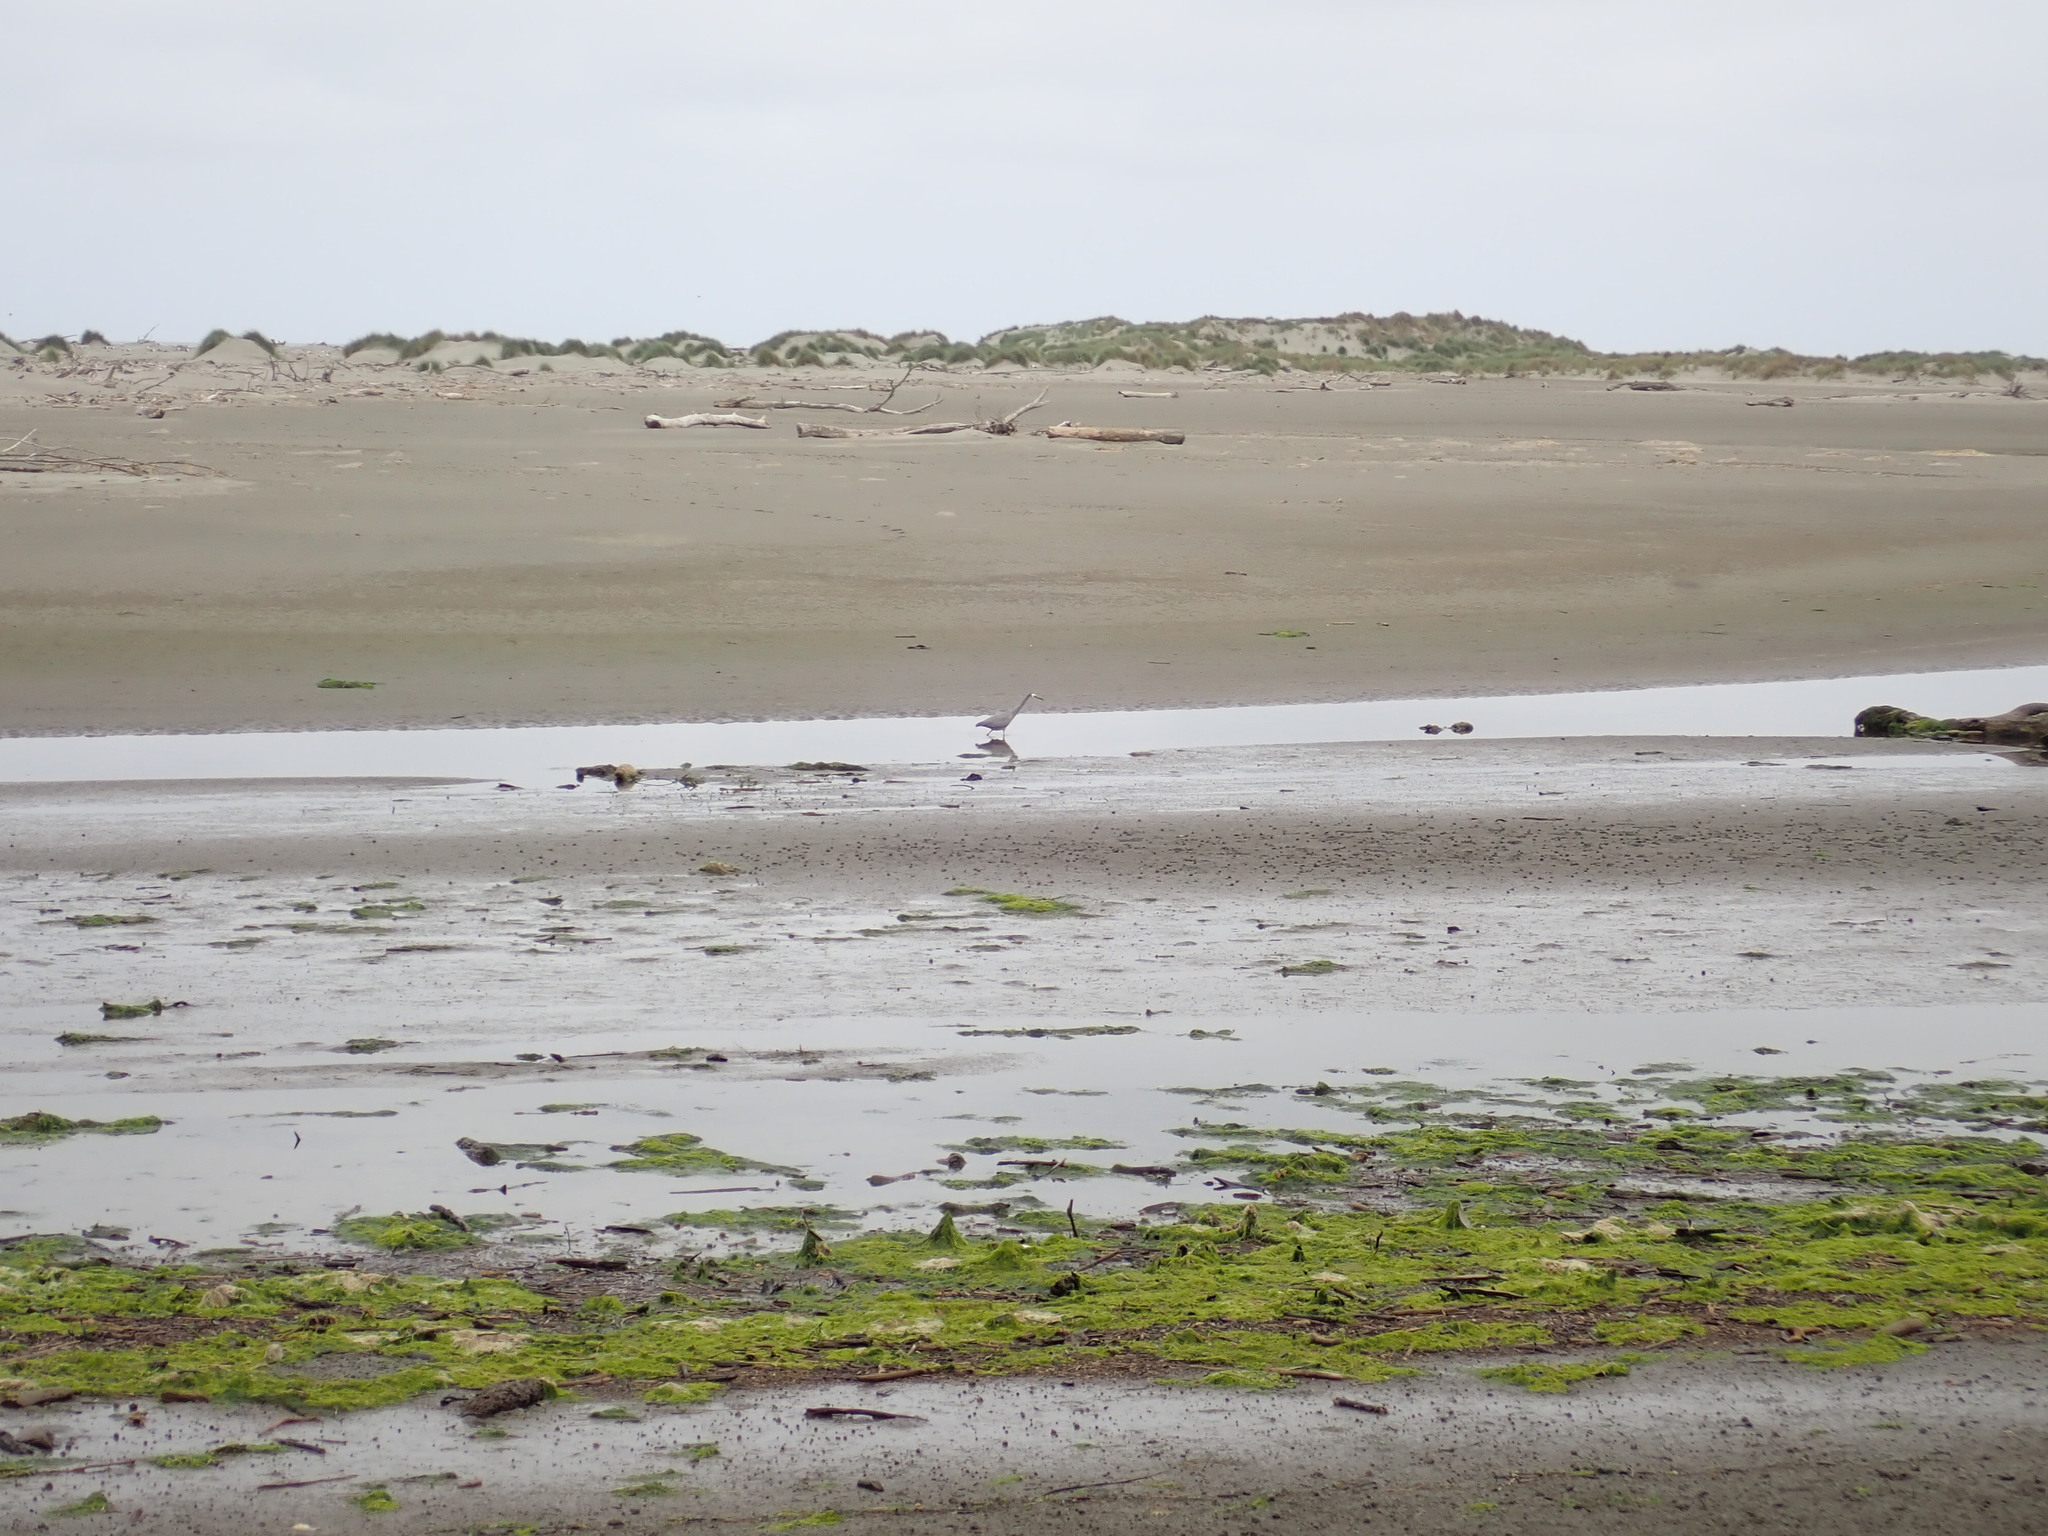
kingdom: Animalia
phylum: Chordata
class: Aves
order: Pelecaniformes
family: Ardeidae
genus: Egretta
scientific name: Egretta novaehollandiae
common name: White-faced heron
